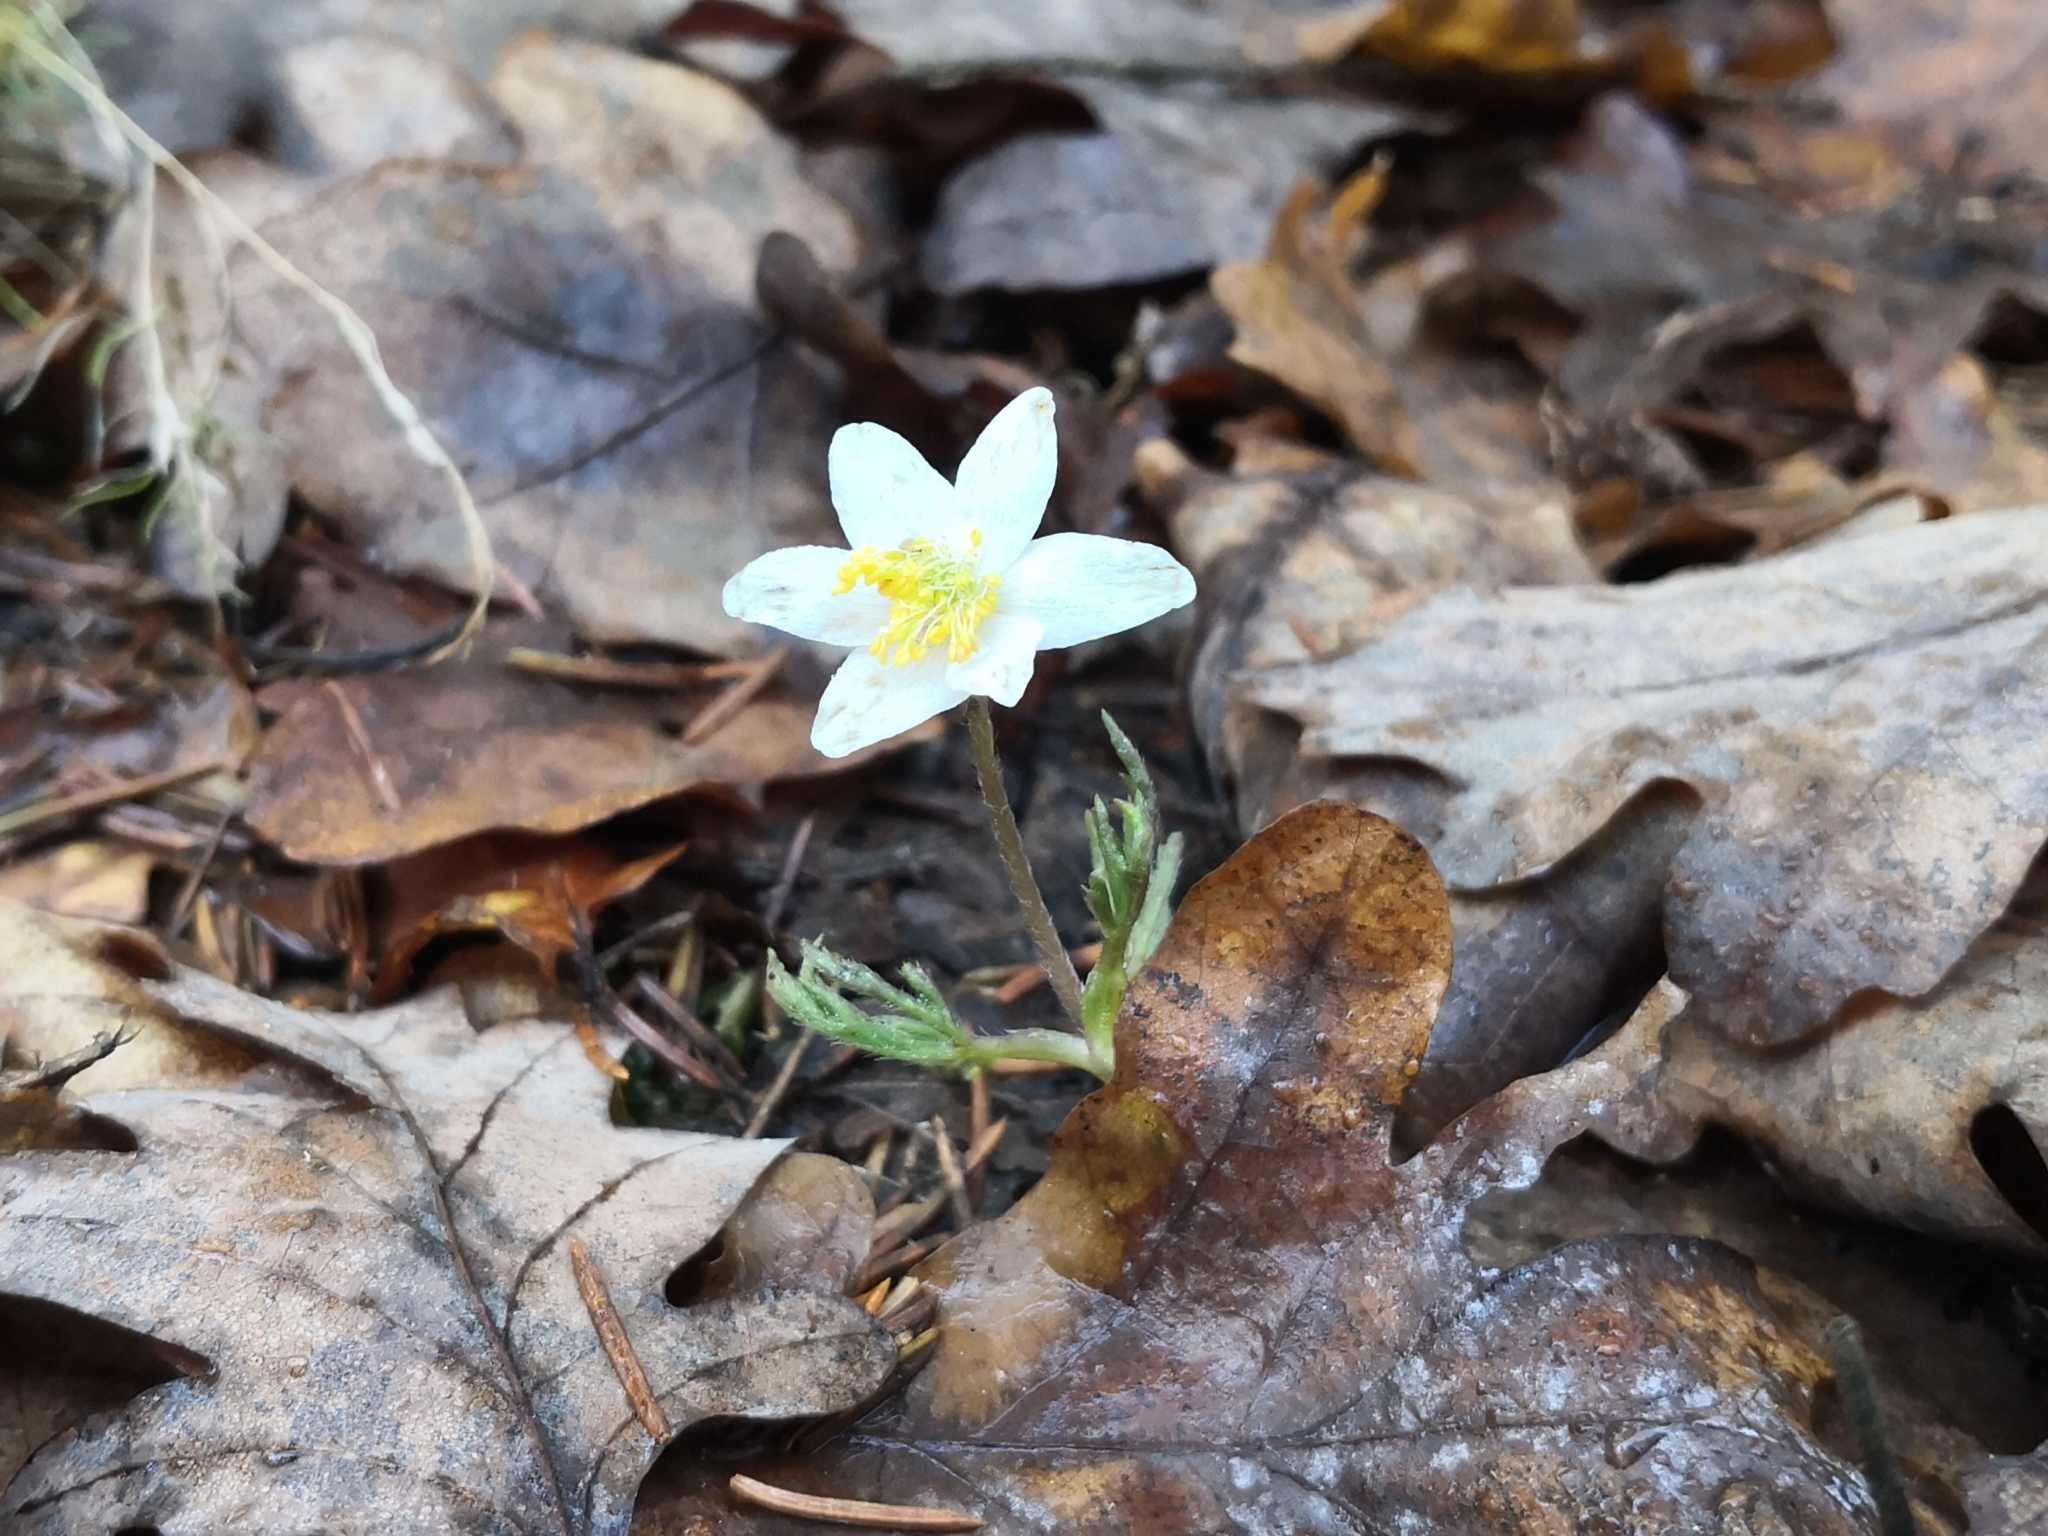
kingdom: Plantae
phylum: Tracheophyta
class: Magnoliopsida
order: Ranunculales
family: Ranunculaceae
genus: Anemone
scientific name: Anemone nemorosa
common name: Wood anemone
